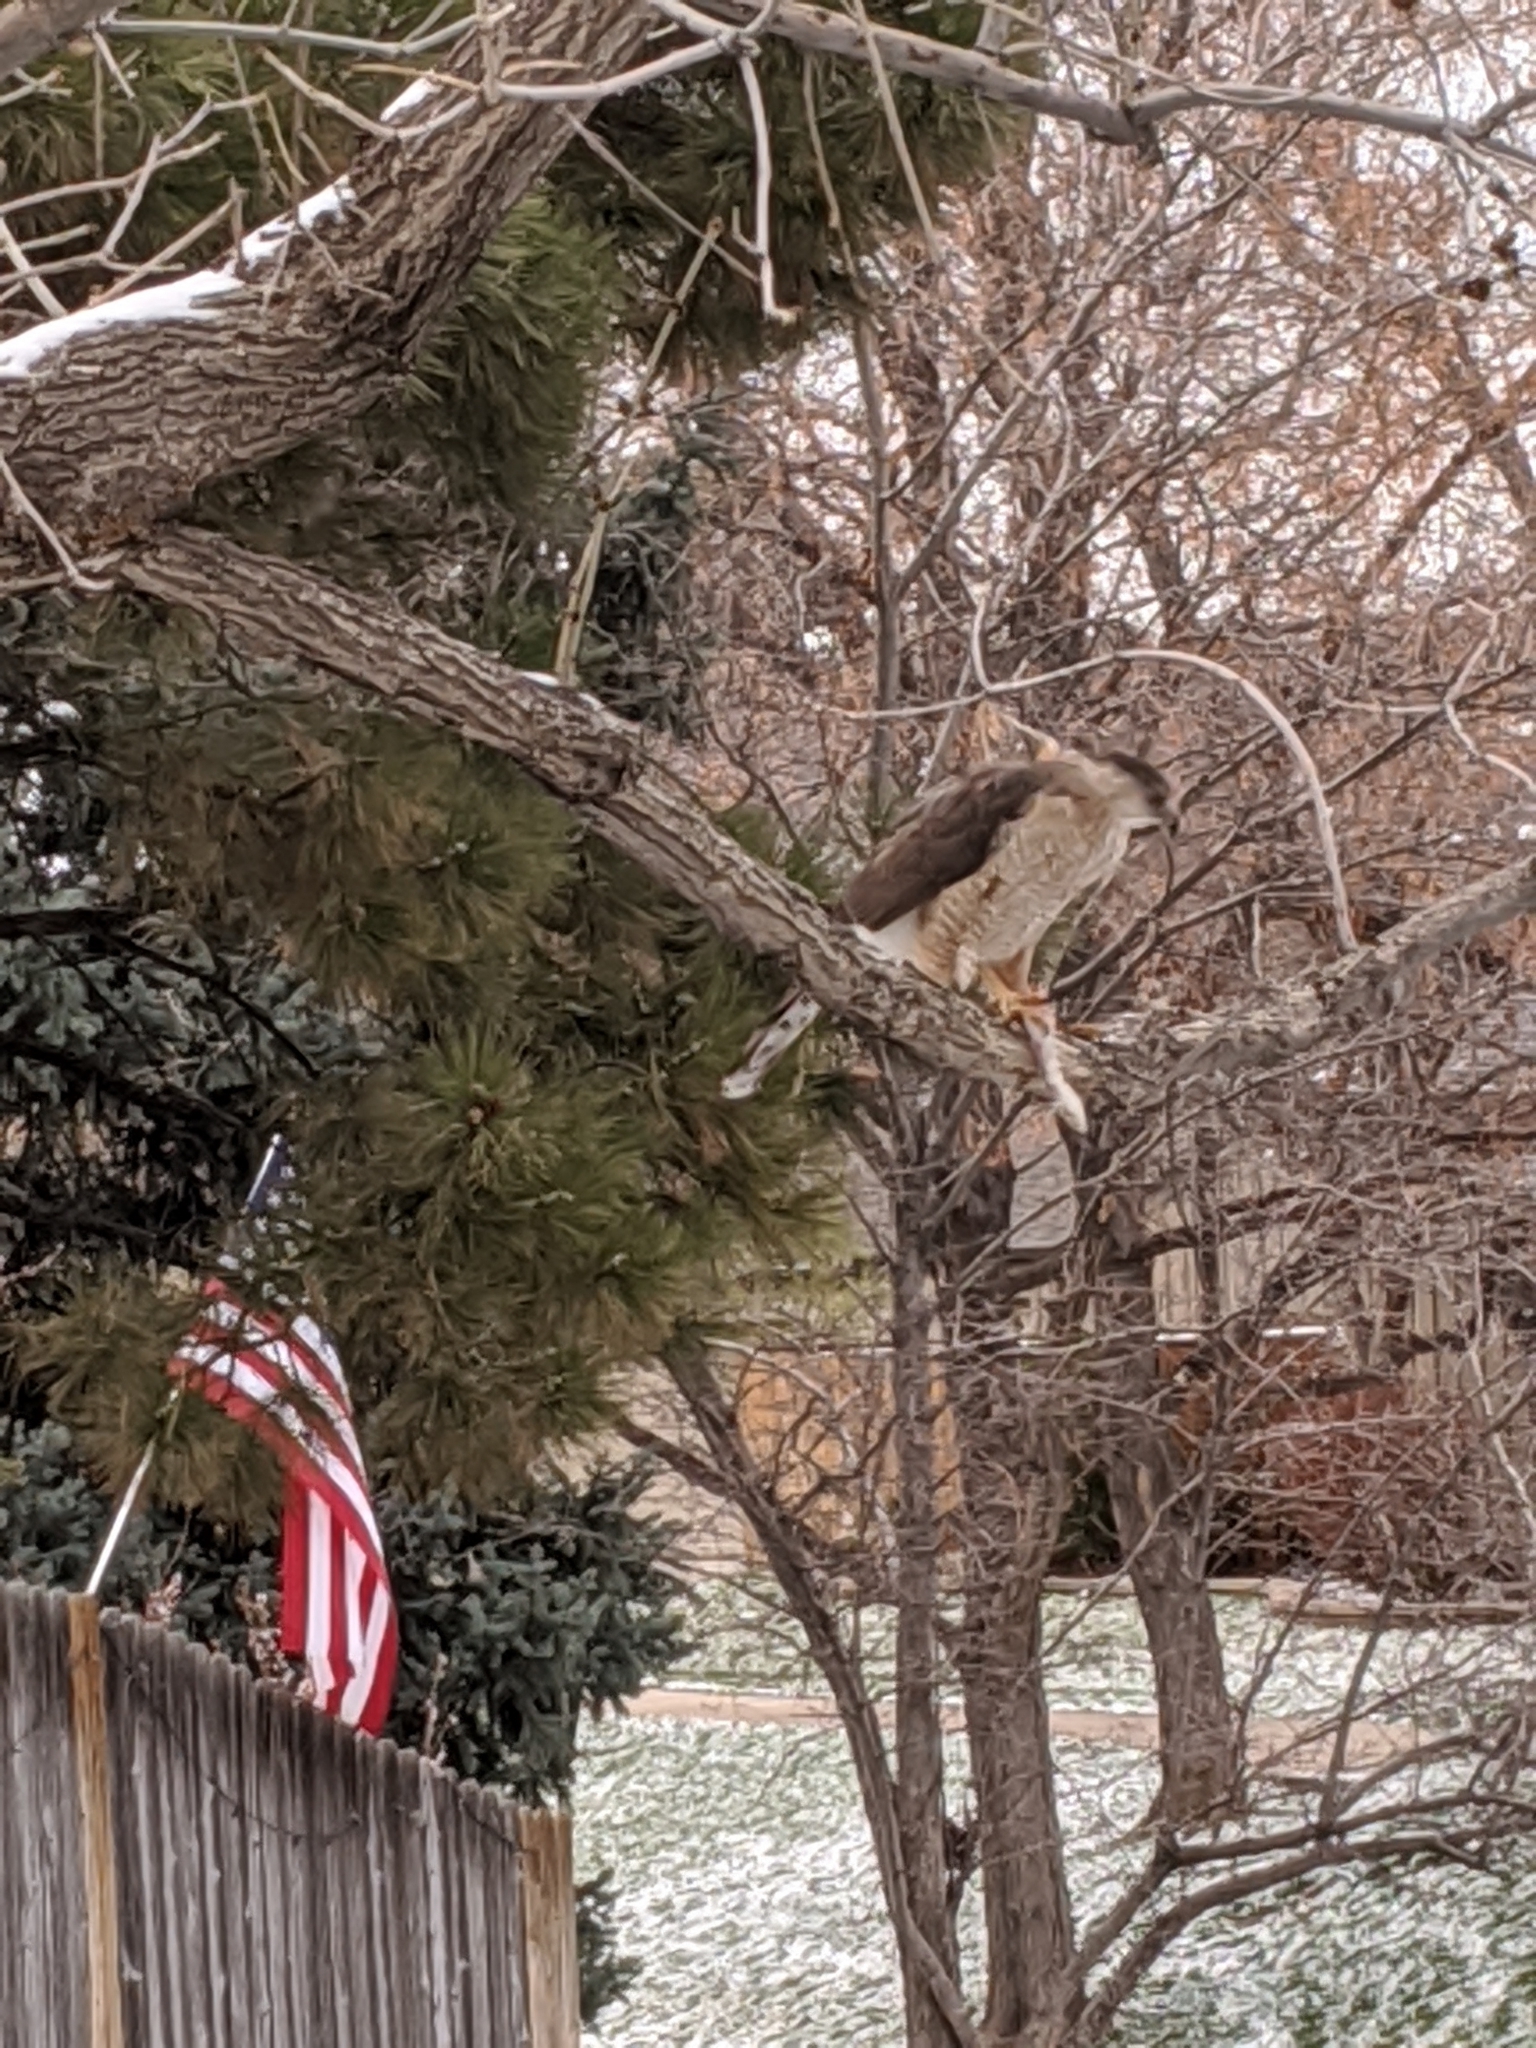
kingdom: Animalia
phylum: Chordata
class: Aves
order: Accipitriformes
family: Accipitridae
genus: Accipiter
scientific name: Accipiter cooperii
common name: Cooper's hawk
